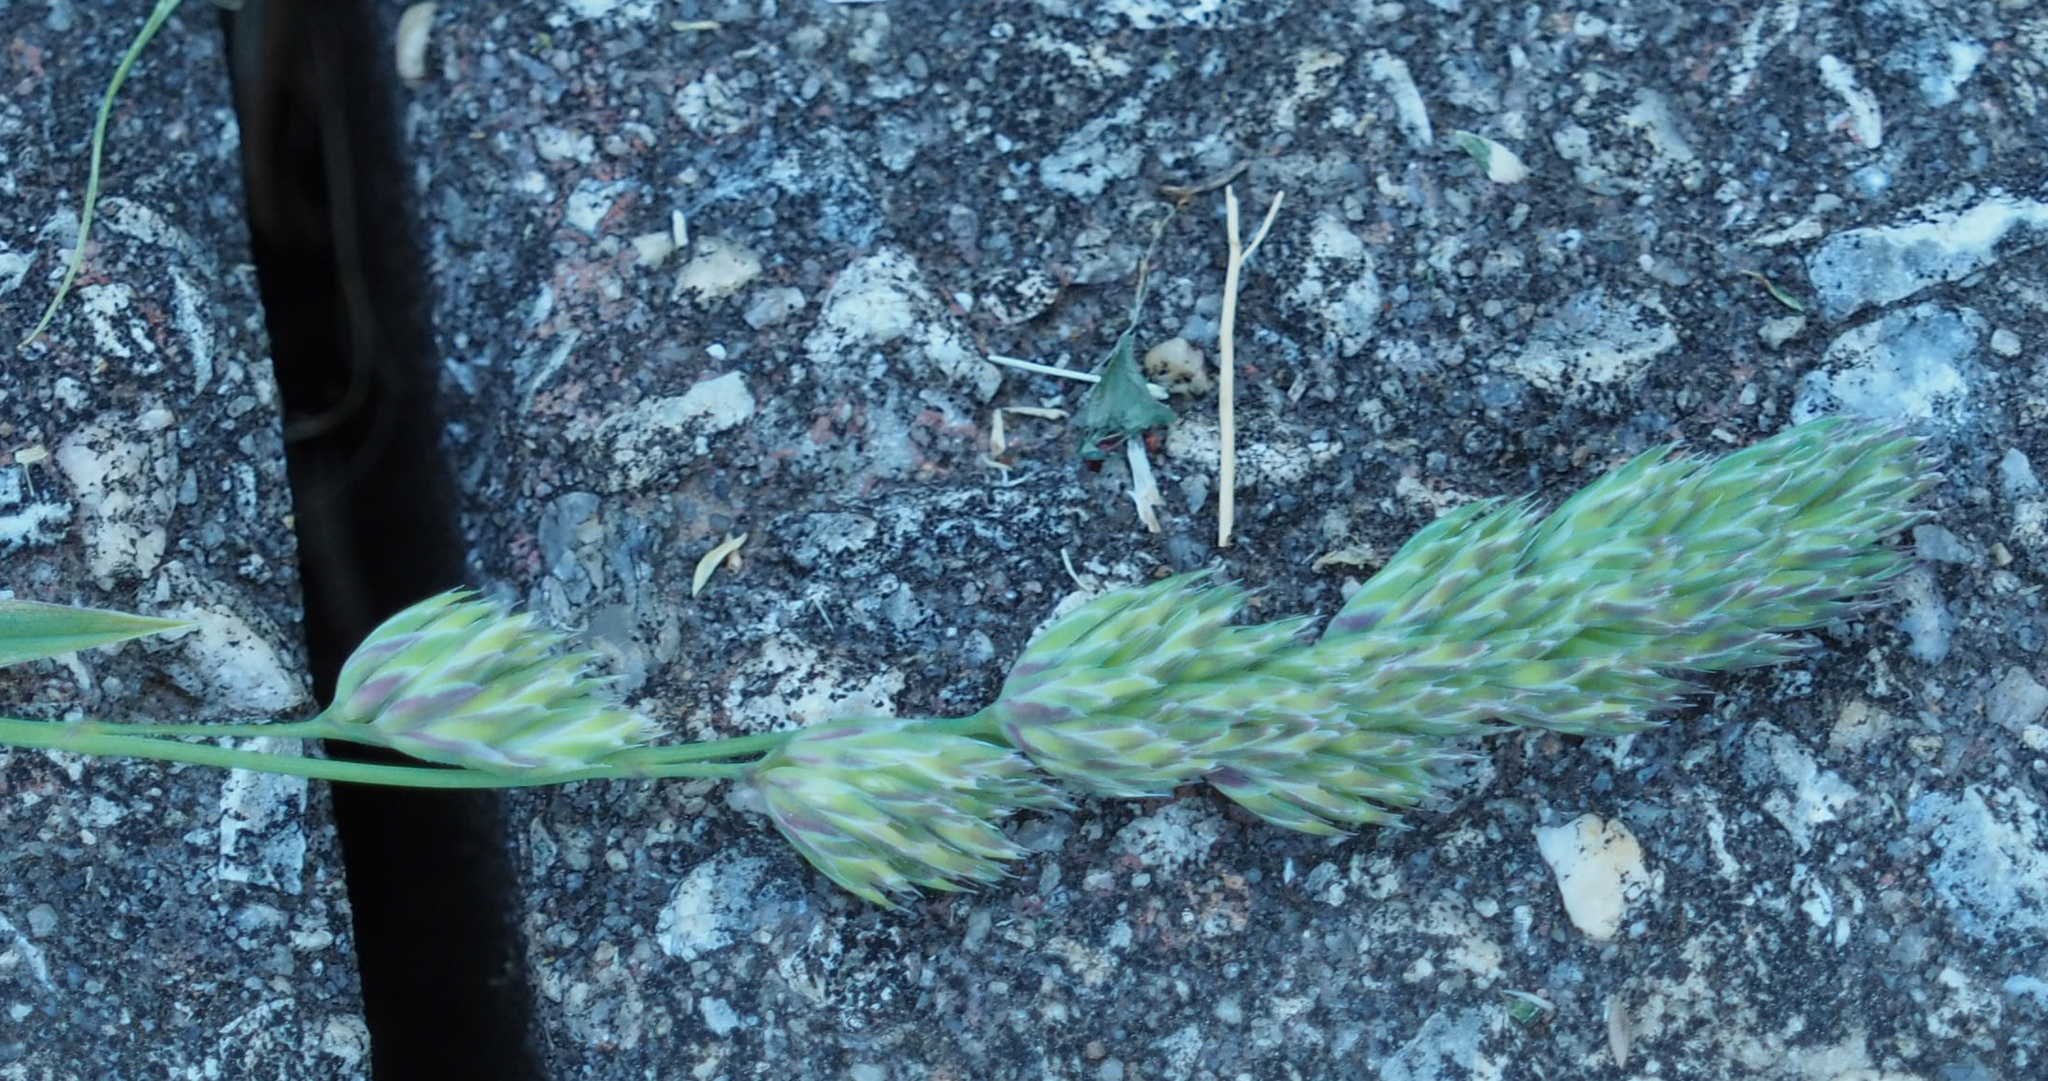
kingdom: Plantae
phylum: Tracheophyta
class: Liliopsida
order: Poales
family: Poaceae
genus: Dactylis
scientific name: Dactylis glomerata
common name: Orchardgrass
